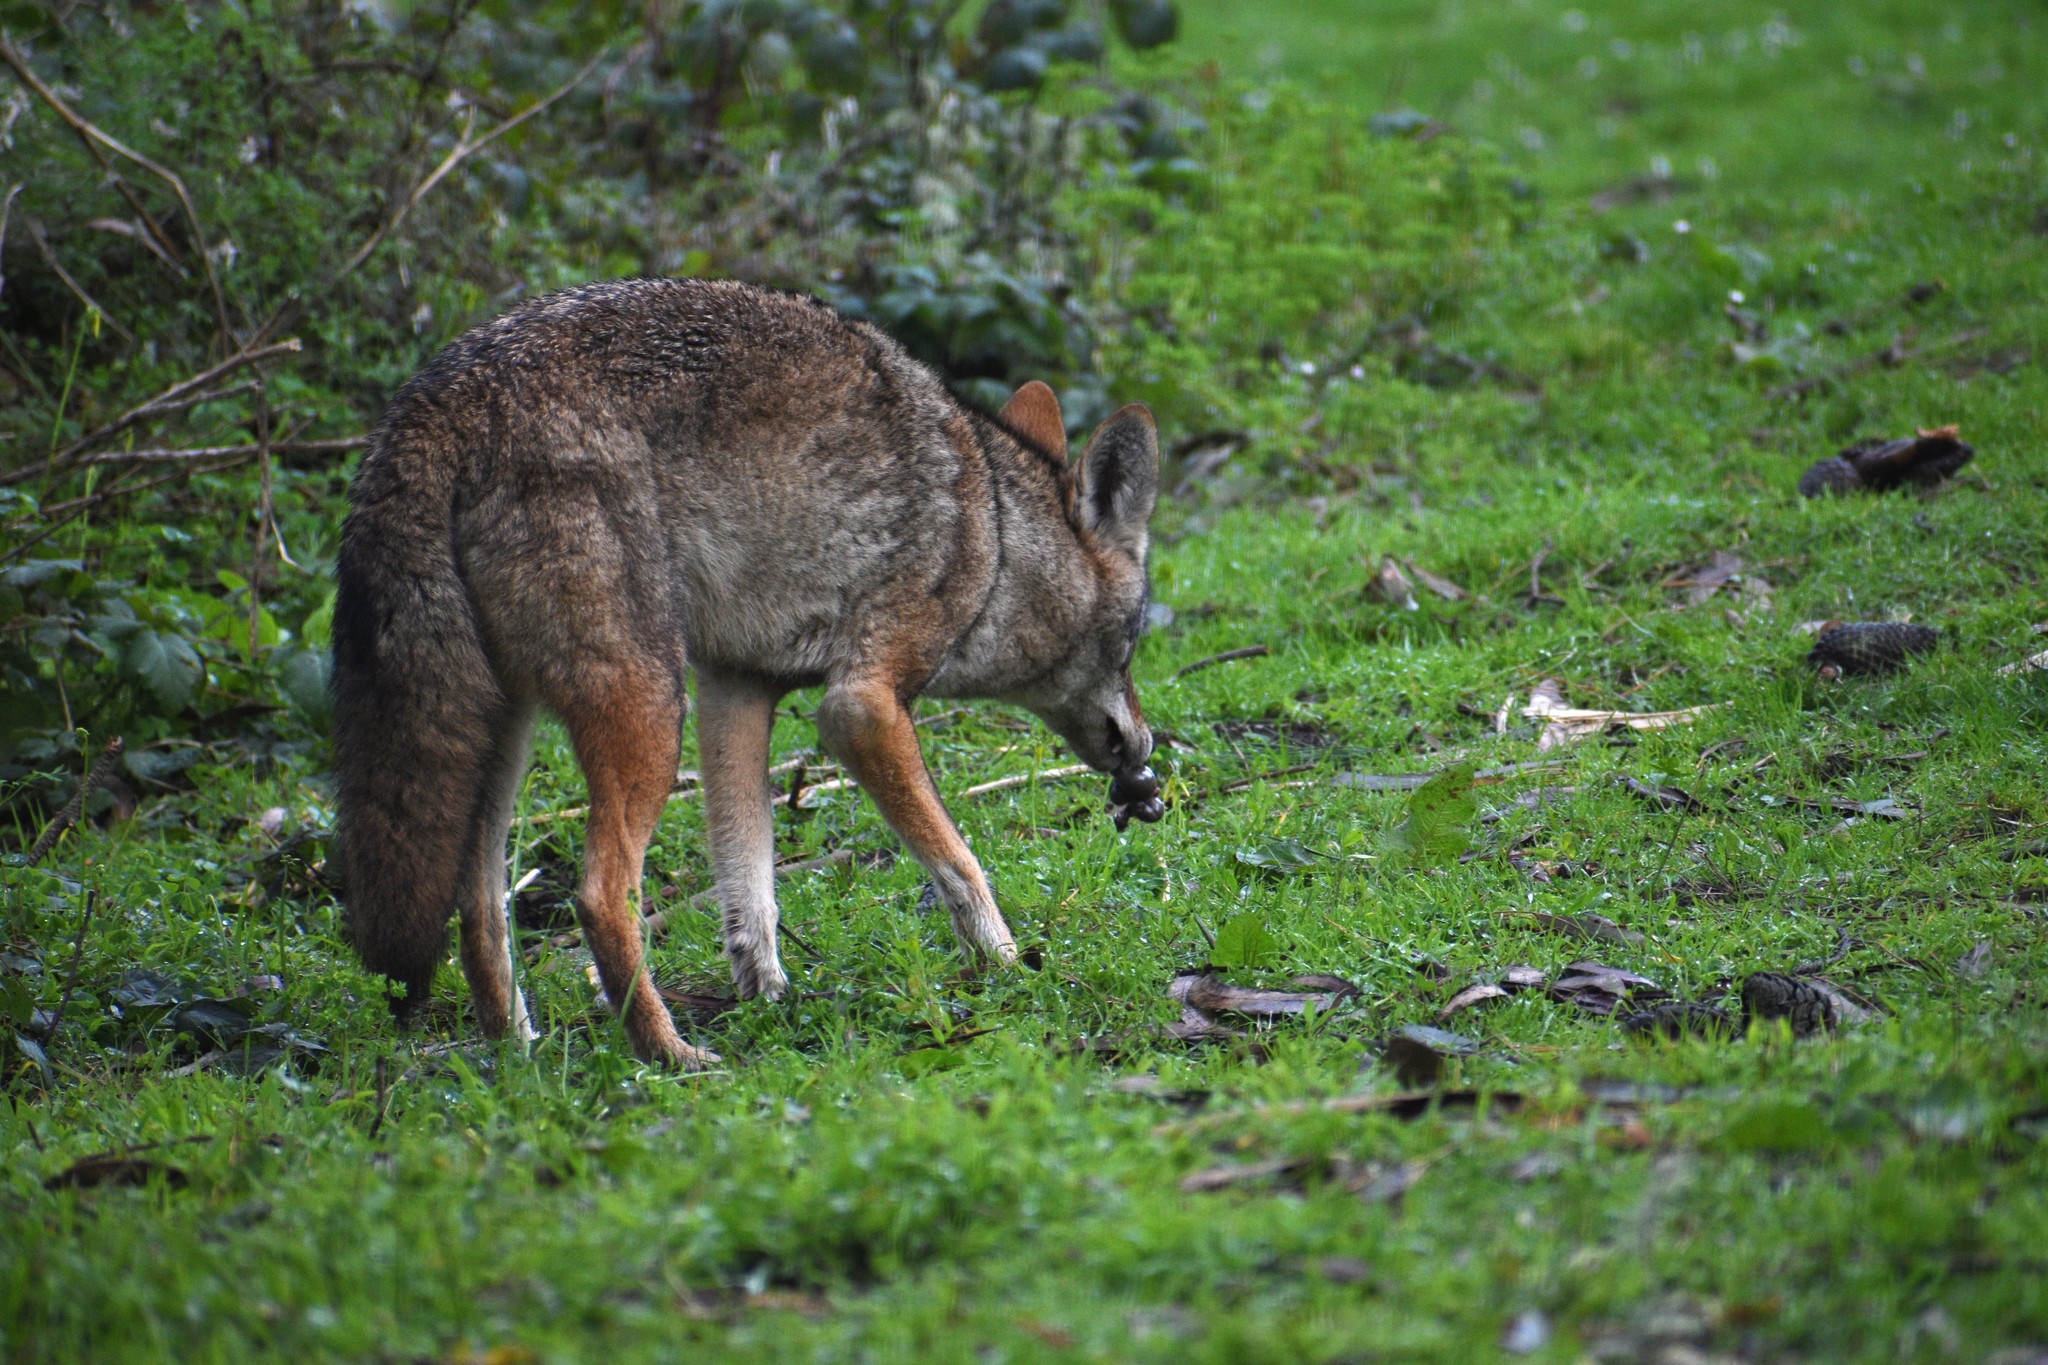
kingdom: Animalia
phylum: Chordata
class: Mammalia
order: Carnivora
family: Canidae
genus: Canis
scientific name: Canis latrans
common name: Coyote
